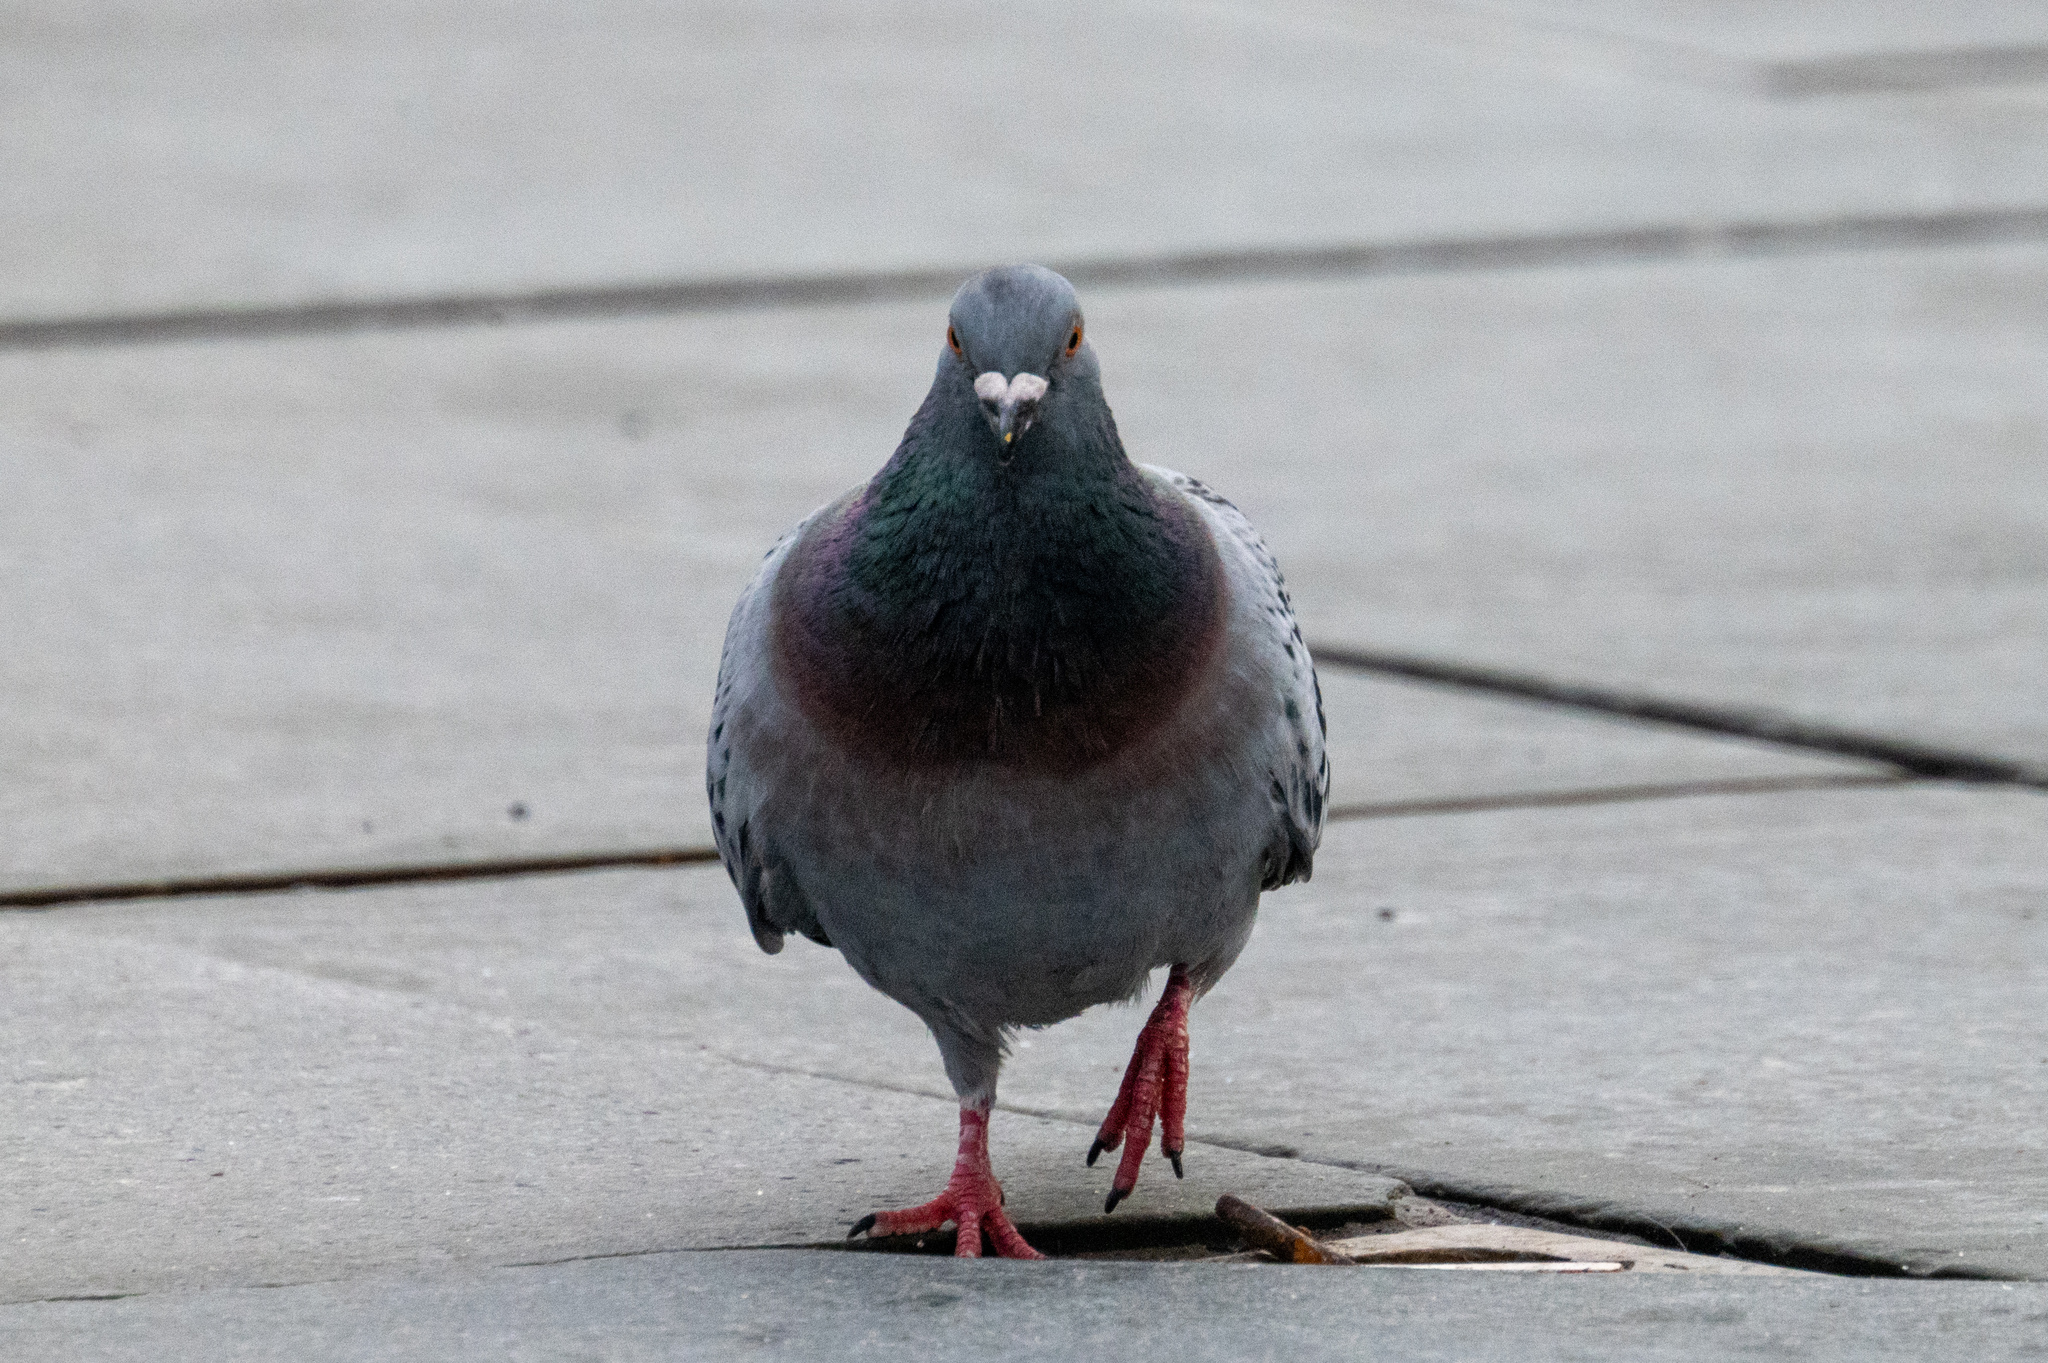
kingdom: Animalia
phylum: Chordata
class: Aves
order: Columbiformes
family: Columbidae
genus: Columba
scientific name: Columba livia
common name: Rock pigeon
